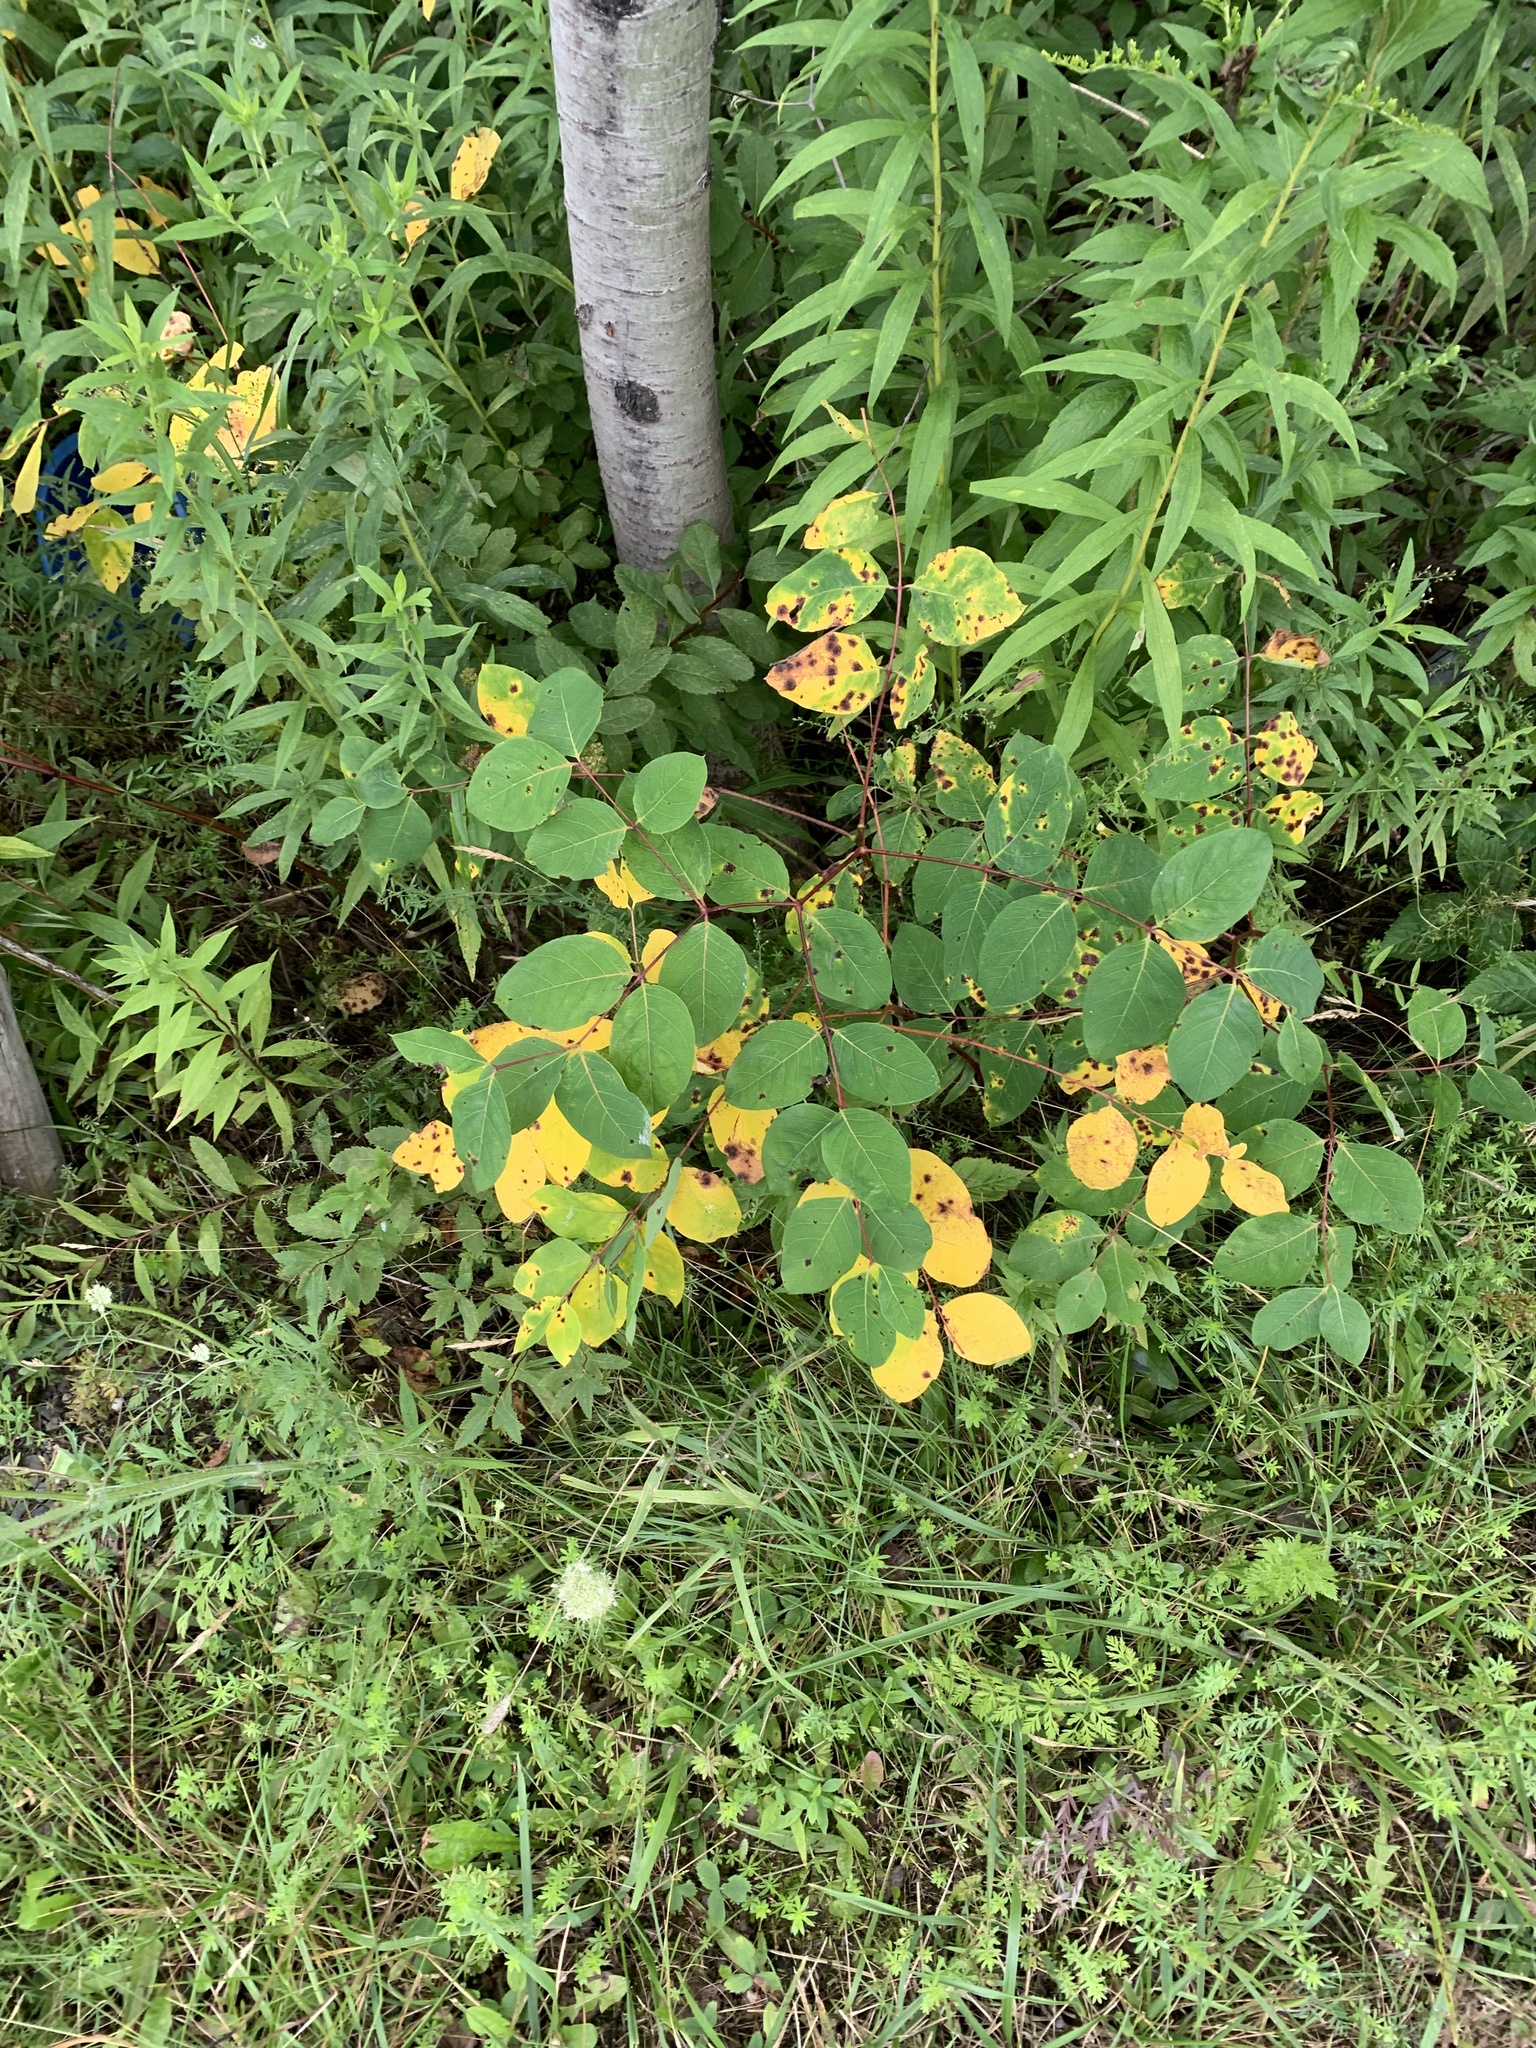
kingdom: Plantae
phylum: Tracheophyta
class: Magnoliopsida
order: Gentianales
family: Apocynaceae
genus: Apocynum
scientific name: Apocynum androsaemifolium
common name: Spreading dogbane
